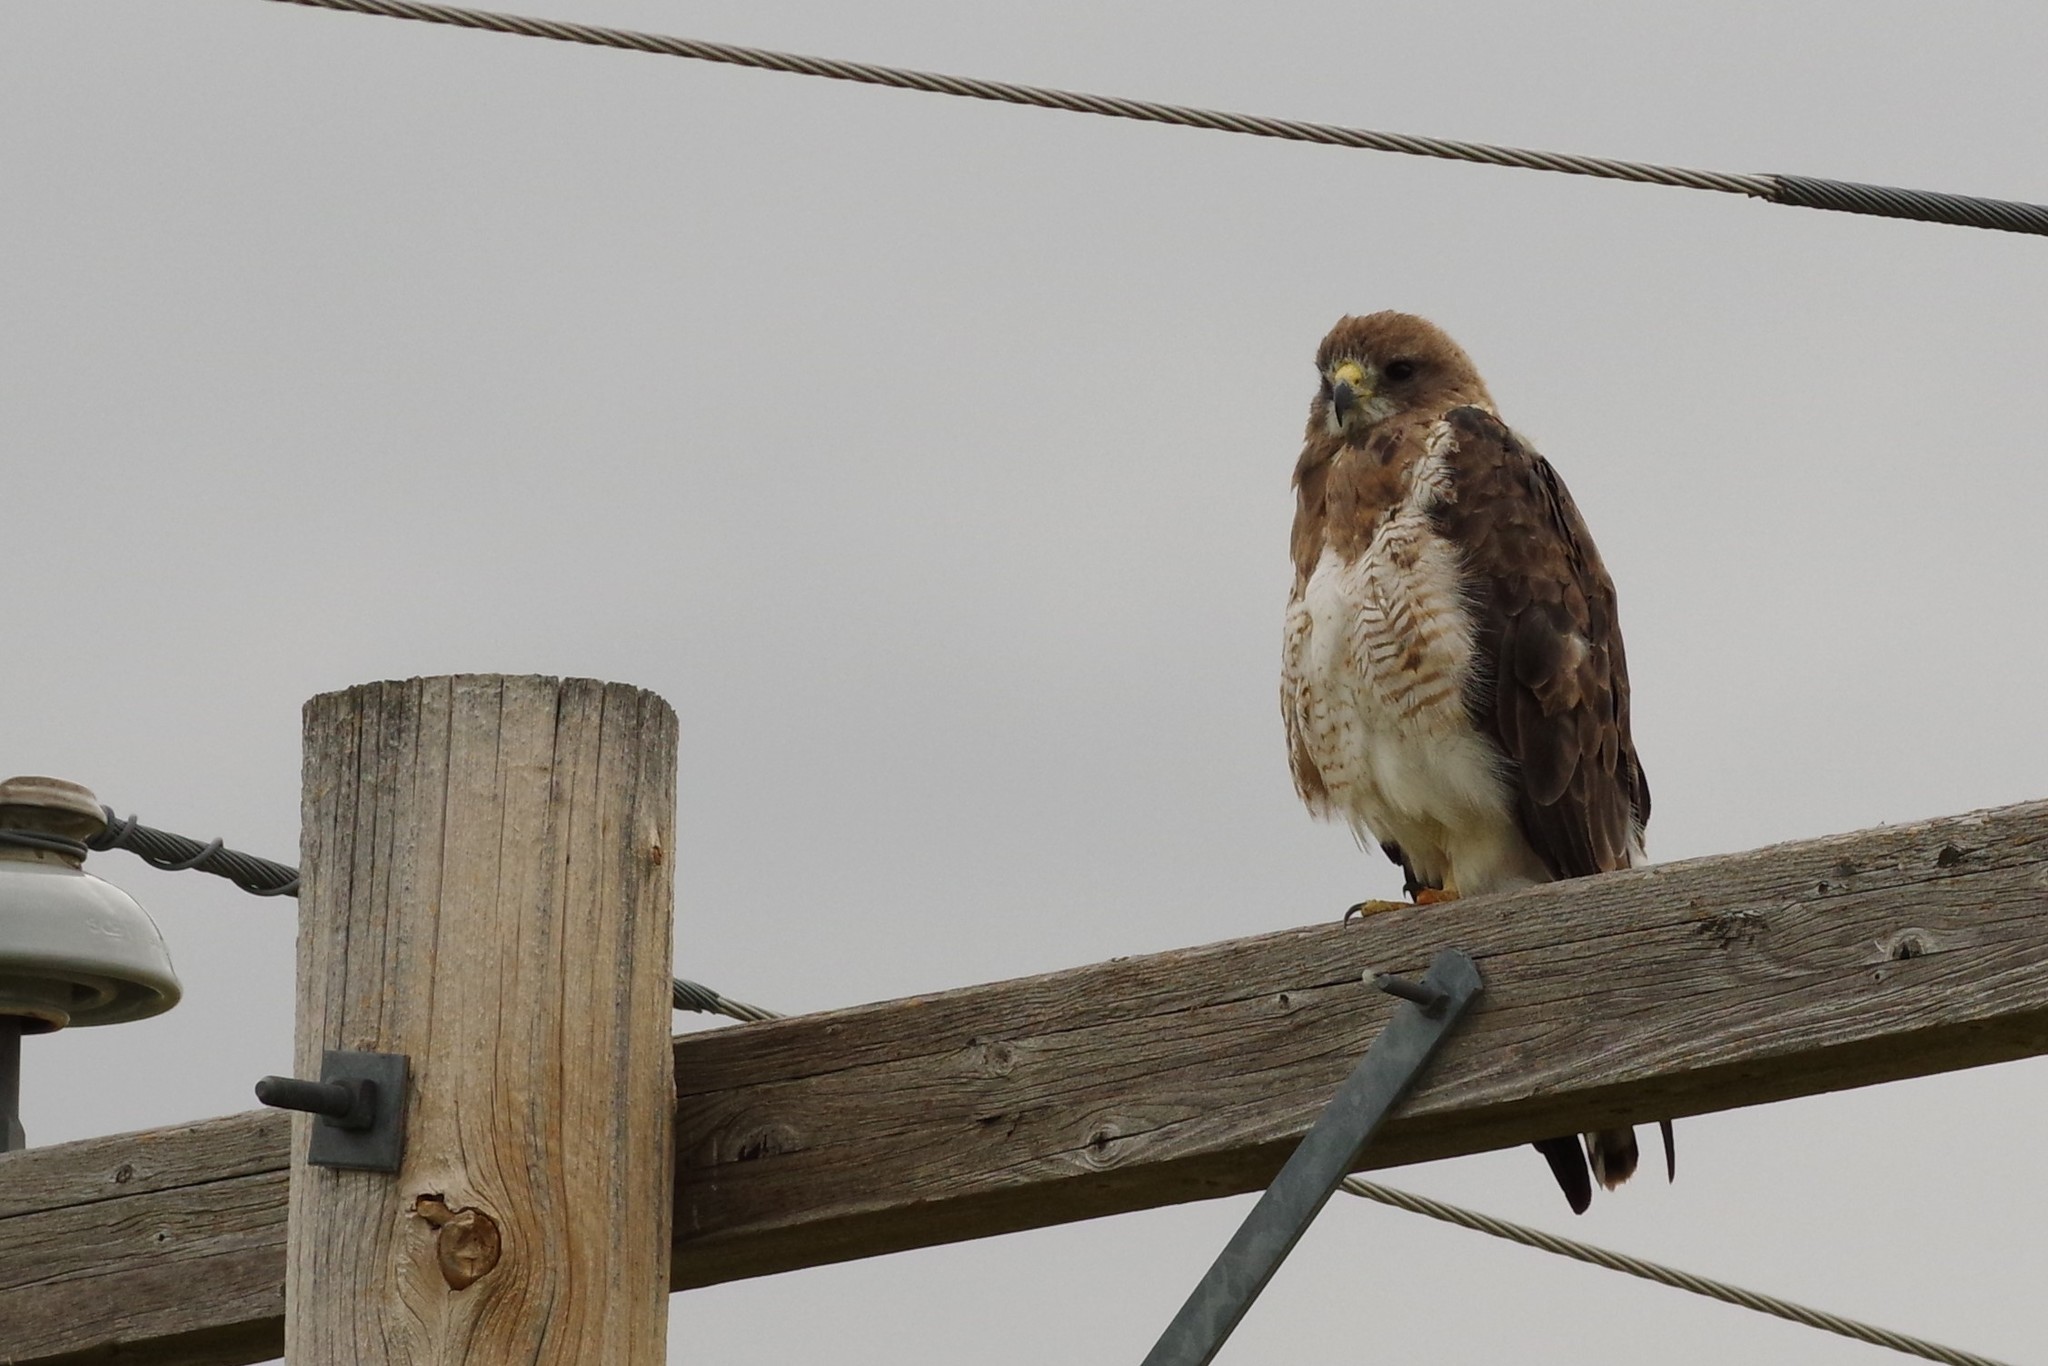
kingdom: Animalia
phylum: Chordata
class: Aves
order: Accipitriformes
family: Accipitridae
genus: Buteo
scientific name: Buteo swainsoni
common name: Swainson's hawk
